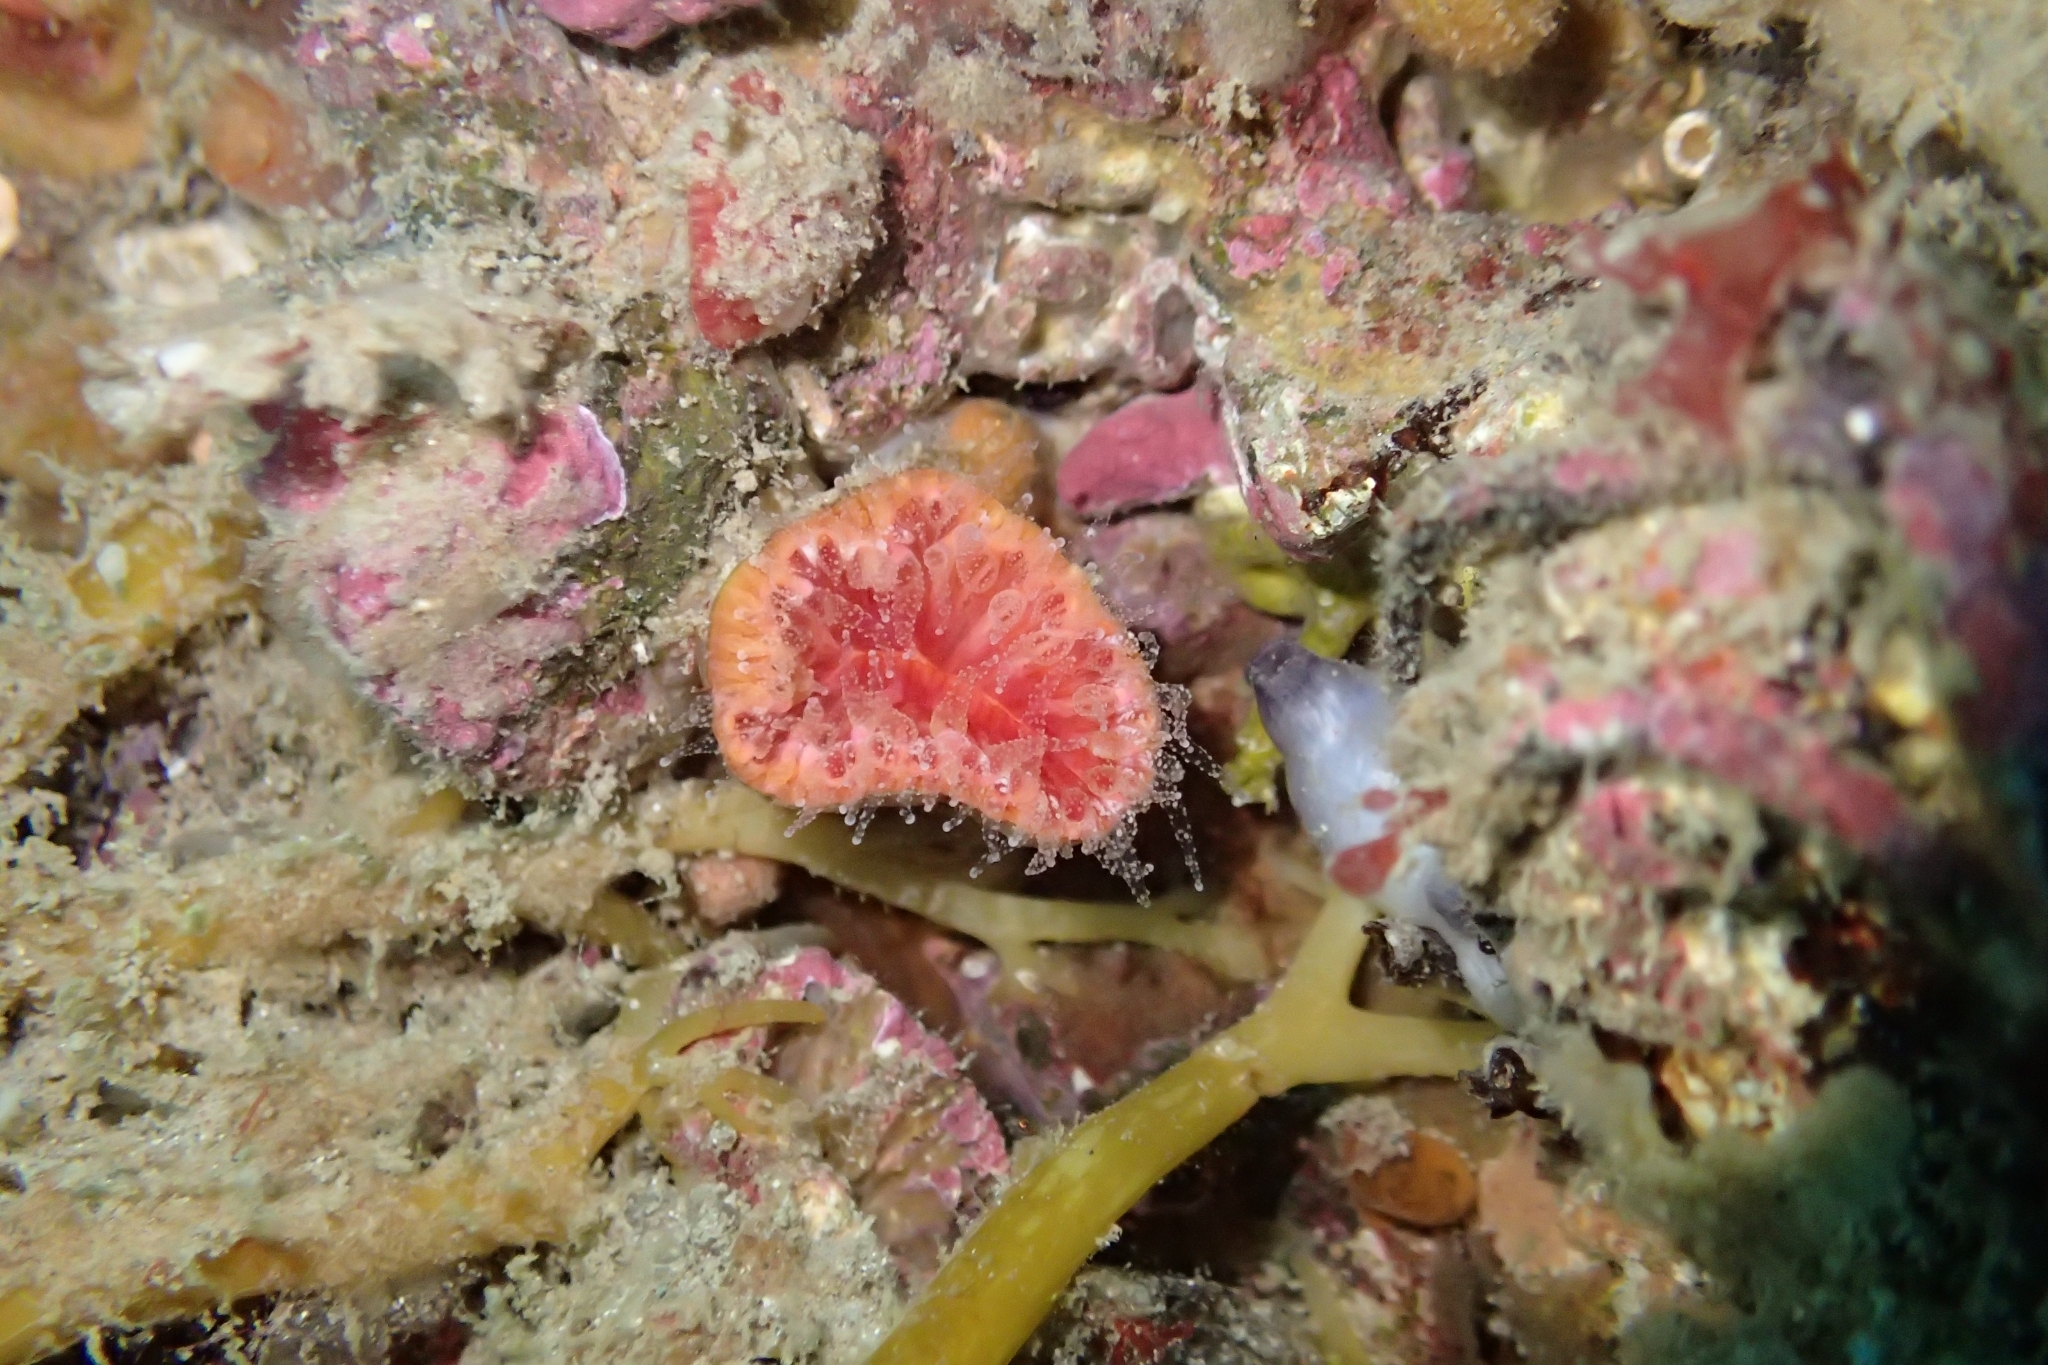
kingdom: Animalia
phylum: Cnidaria
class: Anthozoa
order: Scleractinia
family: Flabellidae
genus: Monomyces
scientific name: Monomyces rubrum
